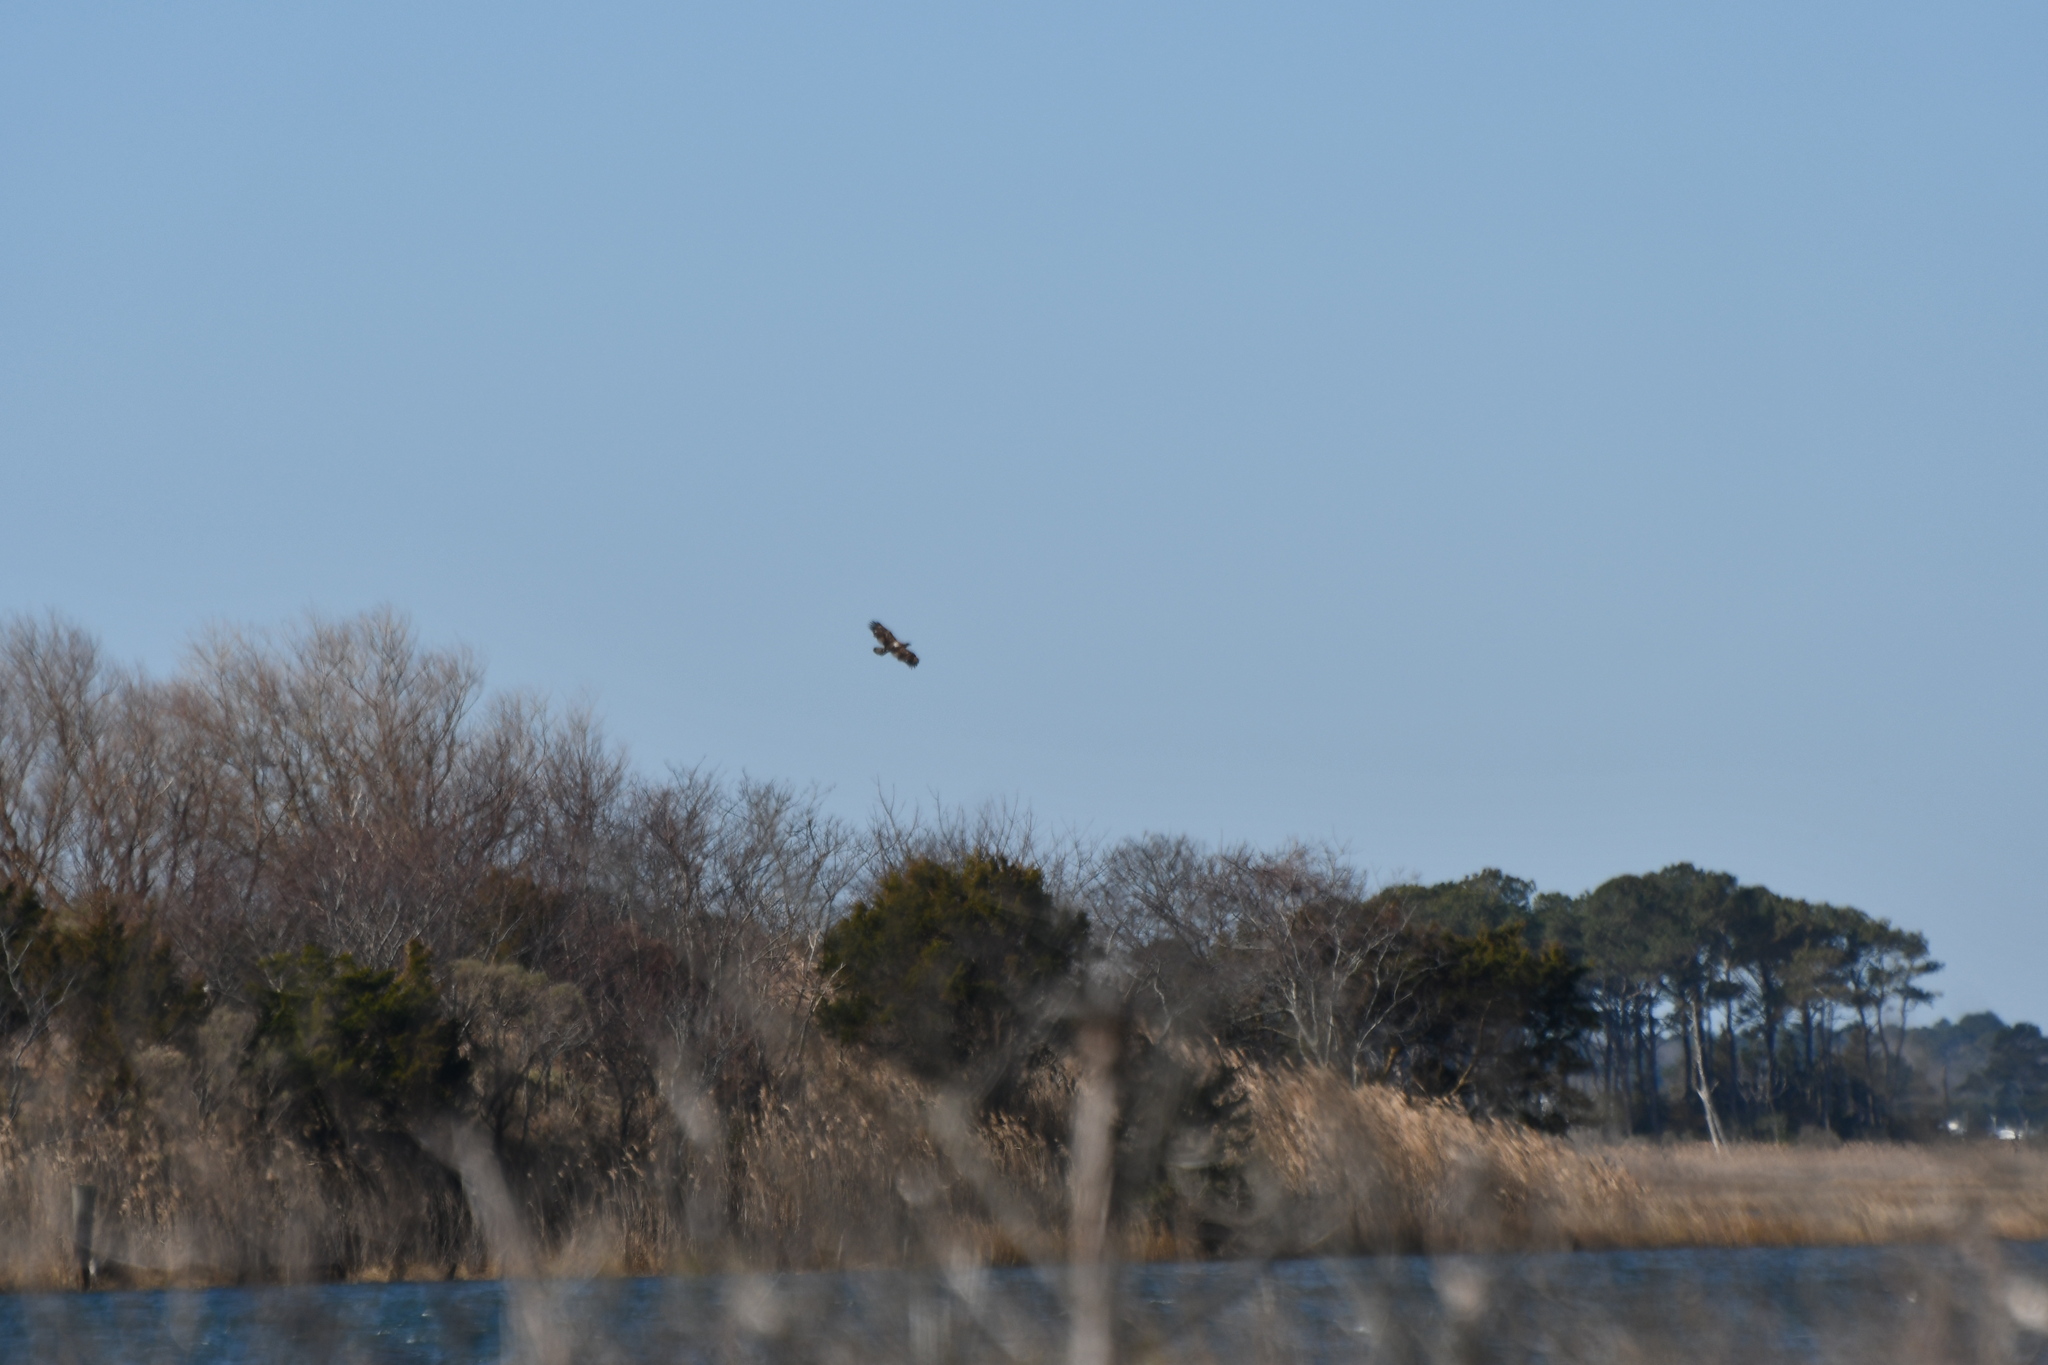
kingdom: Animalia
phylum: Chordata
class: Aves
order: Accipitriformes
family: Accipitridae
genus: Haliaeetus
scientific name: Haliaeetus leucocephalus
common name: Bald eagle
